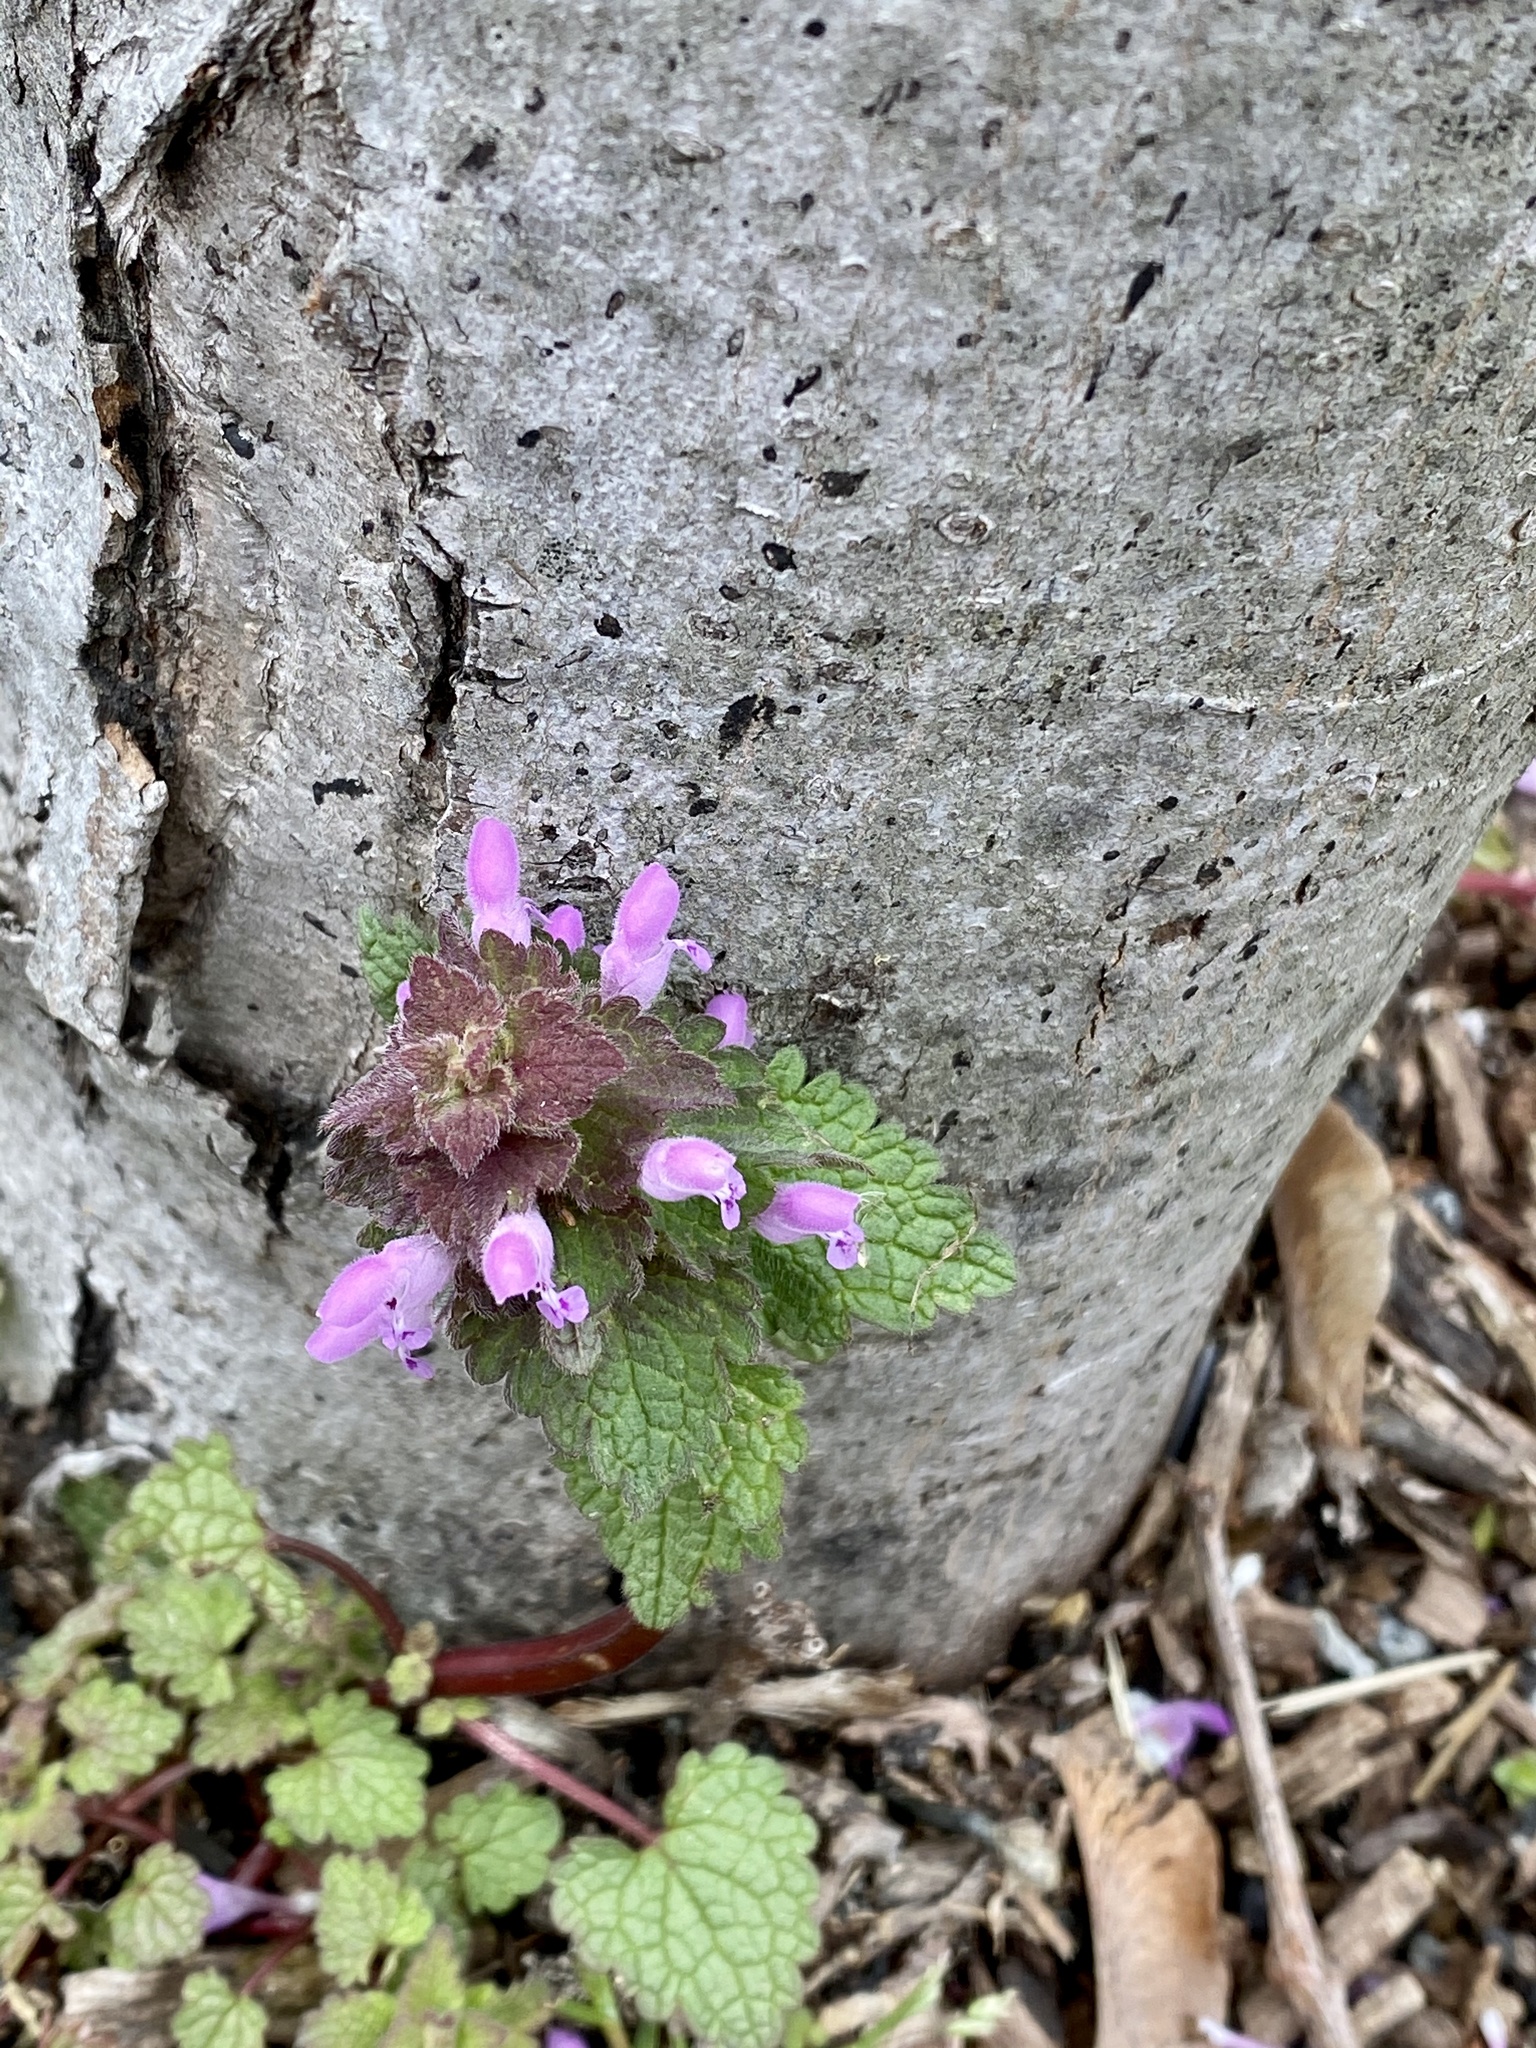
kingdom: Plantae
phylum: Tracheophyta
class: Magnoliopsida
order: Lamiales
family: Lamiaceae
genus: Lamium
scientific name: Lamium purpureum
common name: Red dead-nettle
